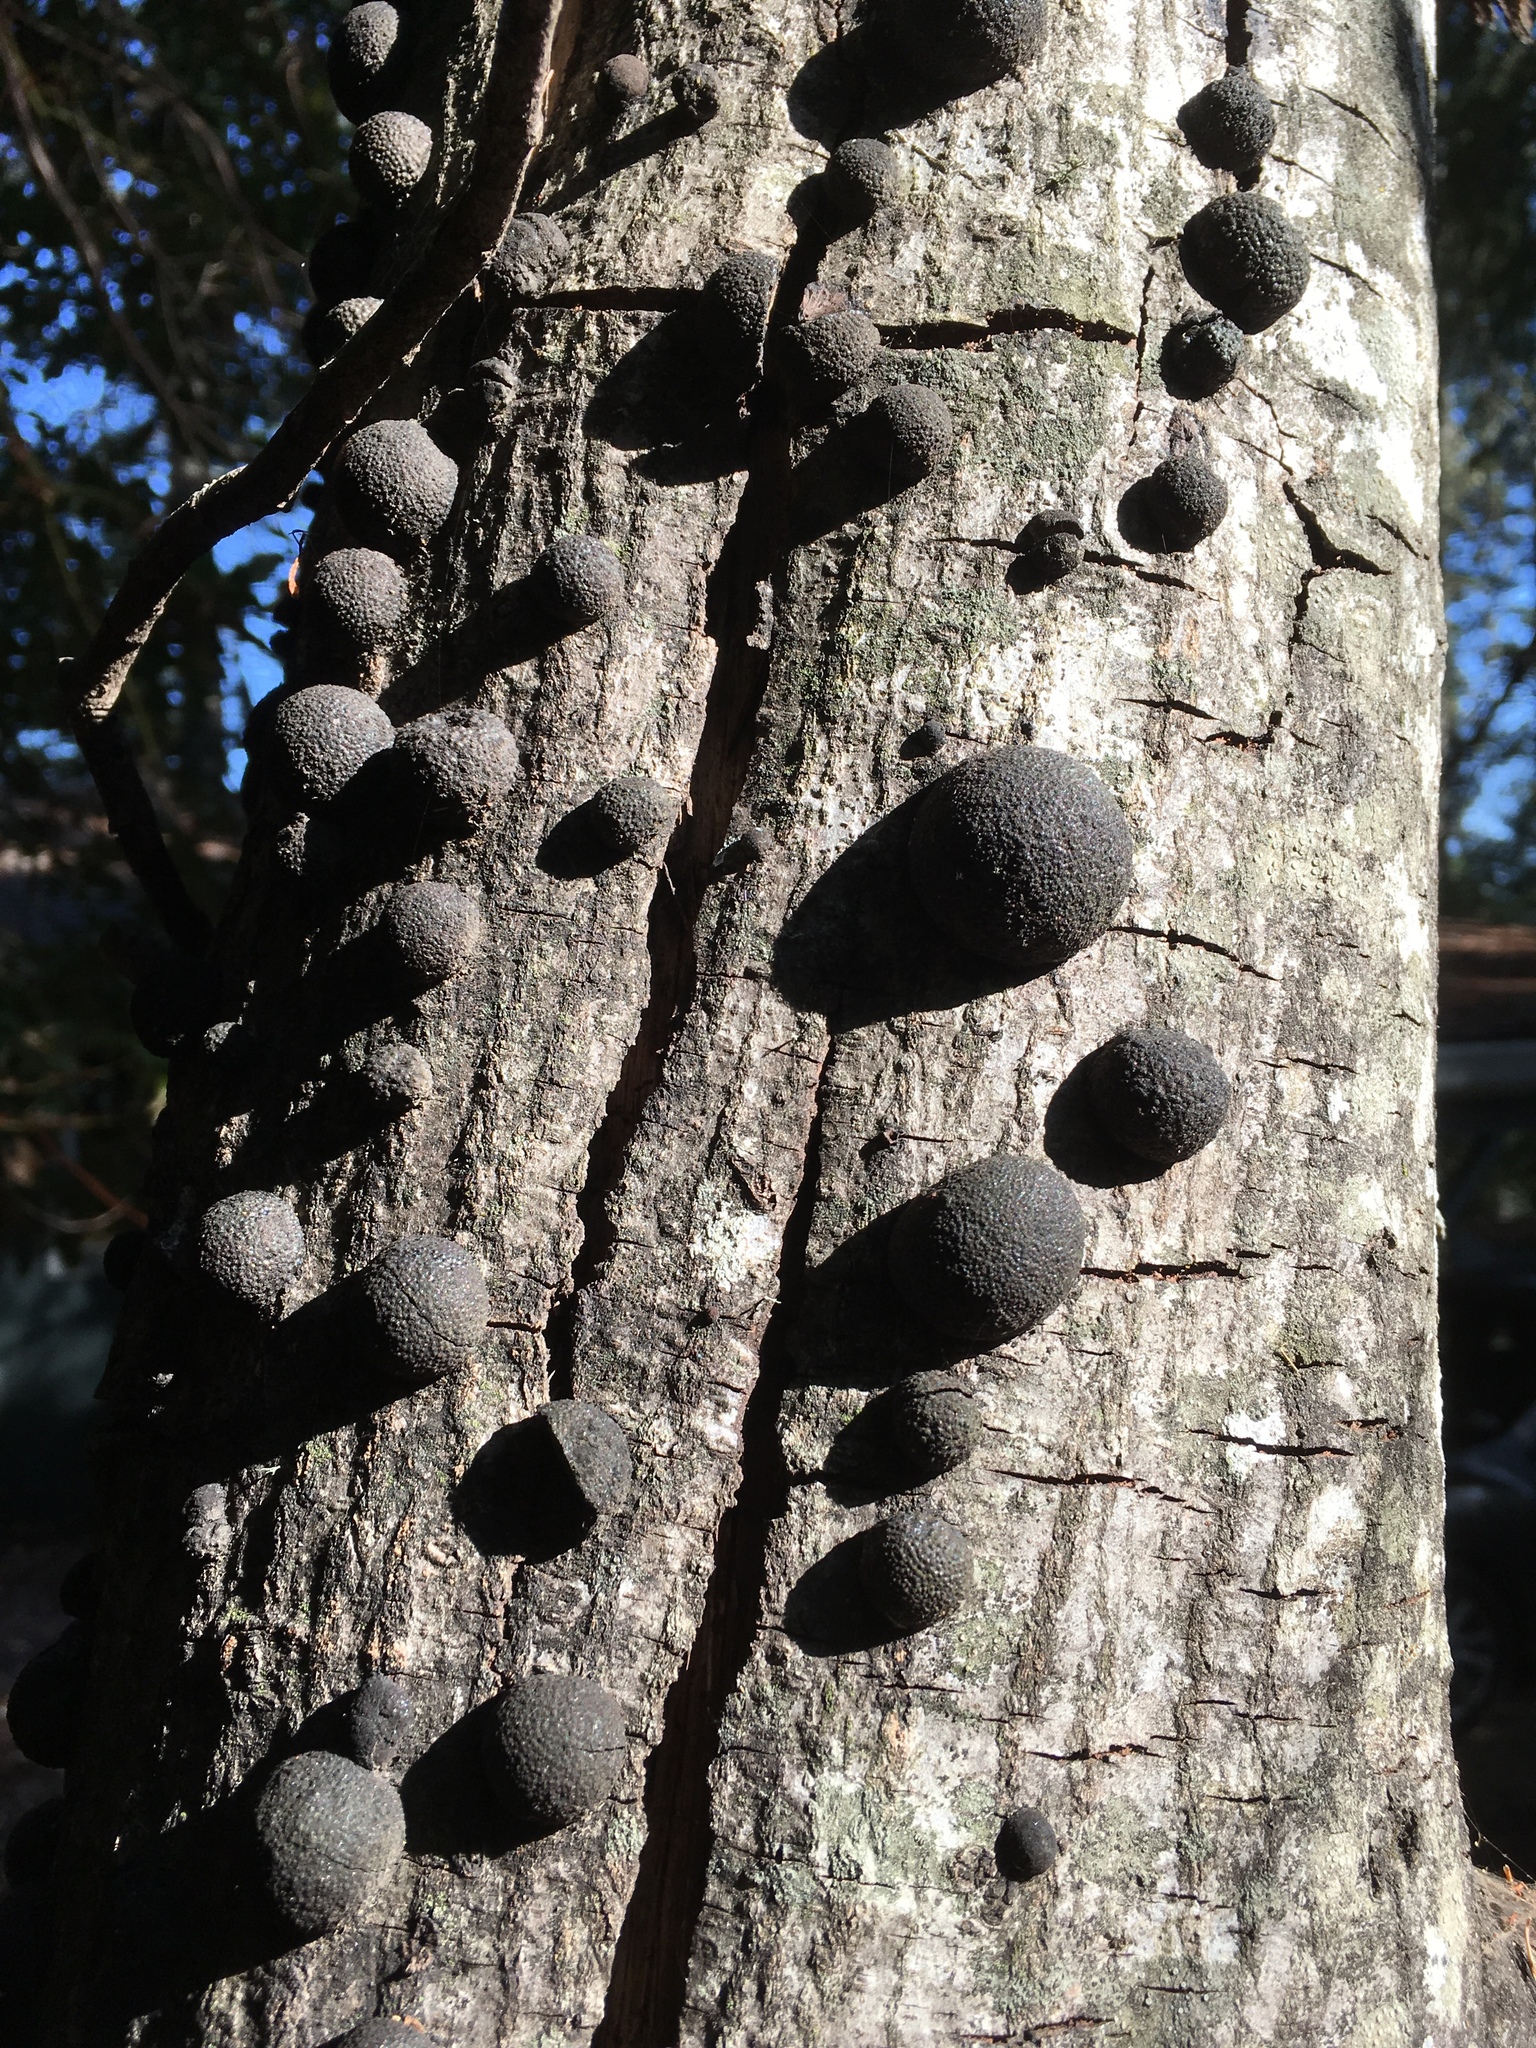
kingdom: Fungi
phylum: Ascomycota
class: Sordariomycetes
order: Xylariales
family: Hypoxylaceae
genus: Annulohypoxylon
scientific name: Annulohypoxylon thouarsianum
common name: Cramp balls
